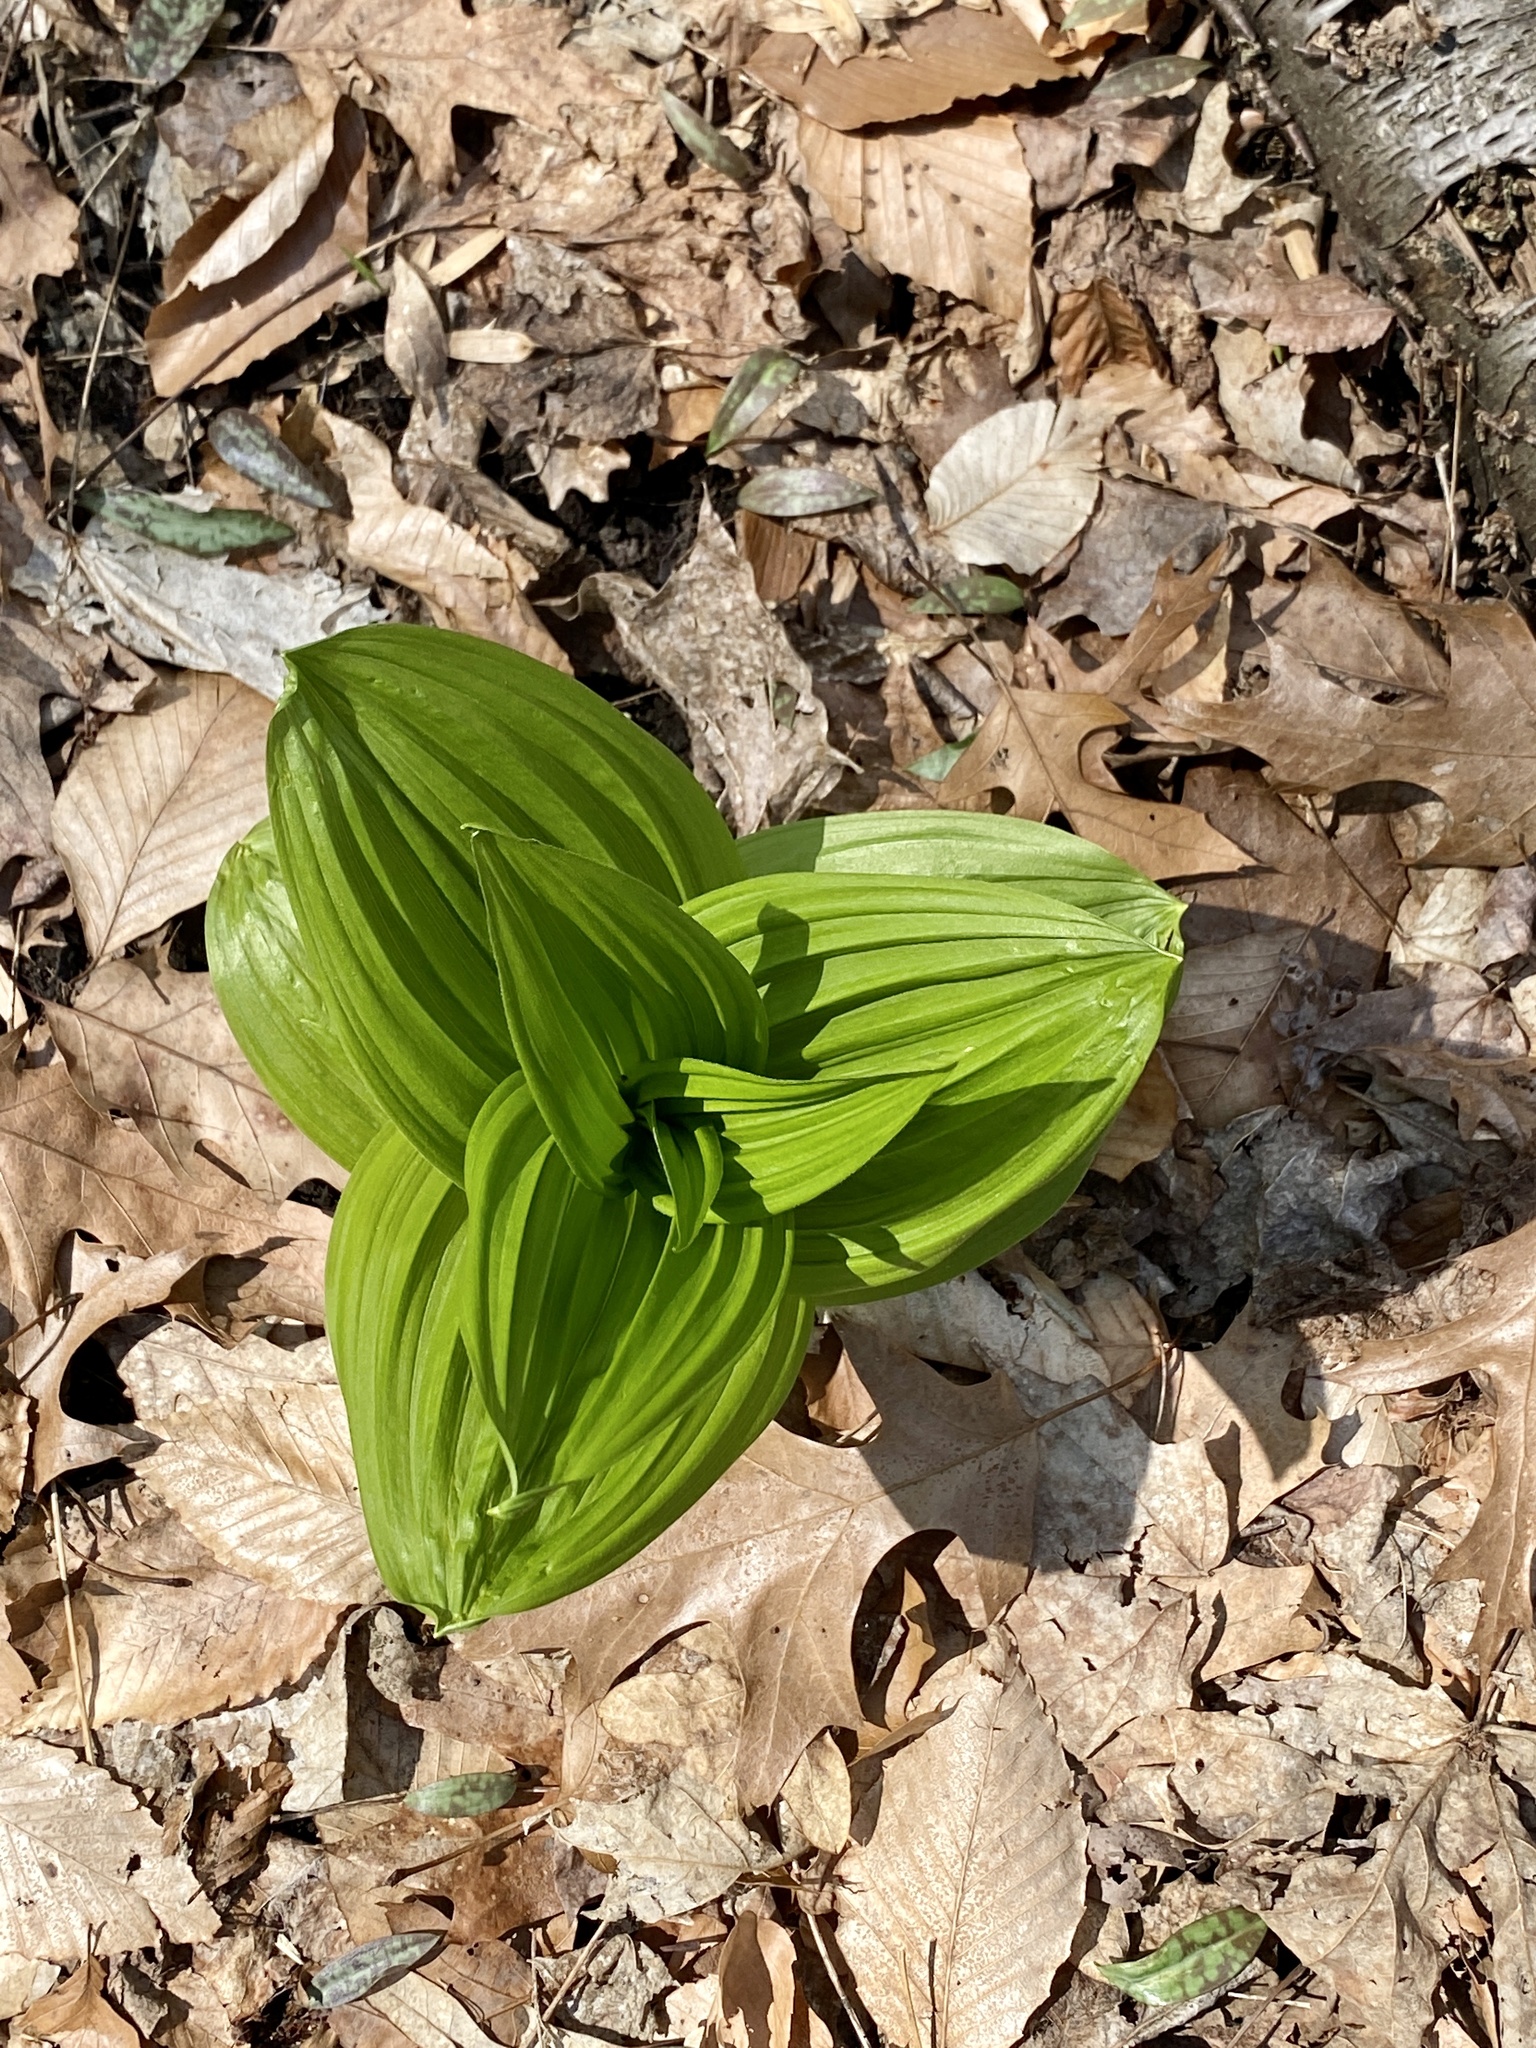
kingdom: Plantae
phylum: Tracheophyta
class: Liliopsida
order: Liliales
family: Melanthiaceae
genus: Veratrum
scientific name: Veratrum viride
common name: American false hellebore
